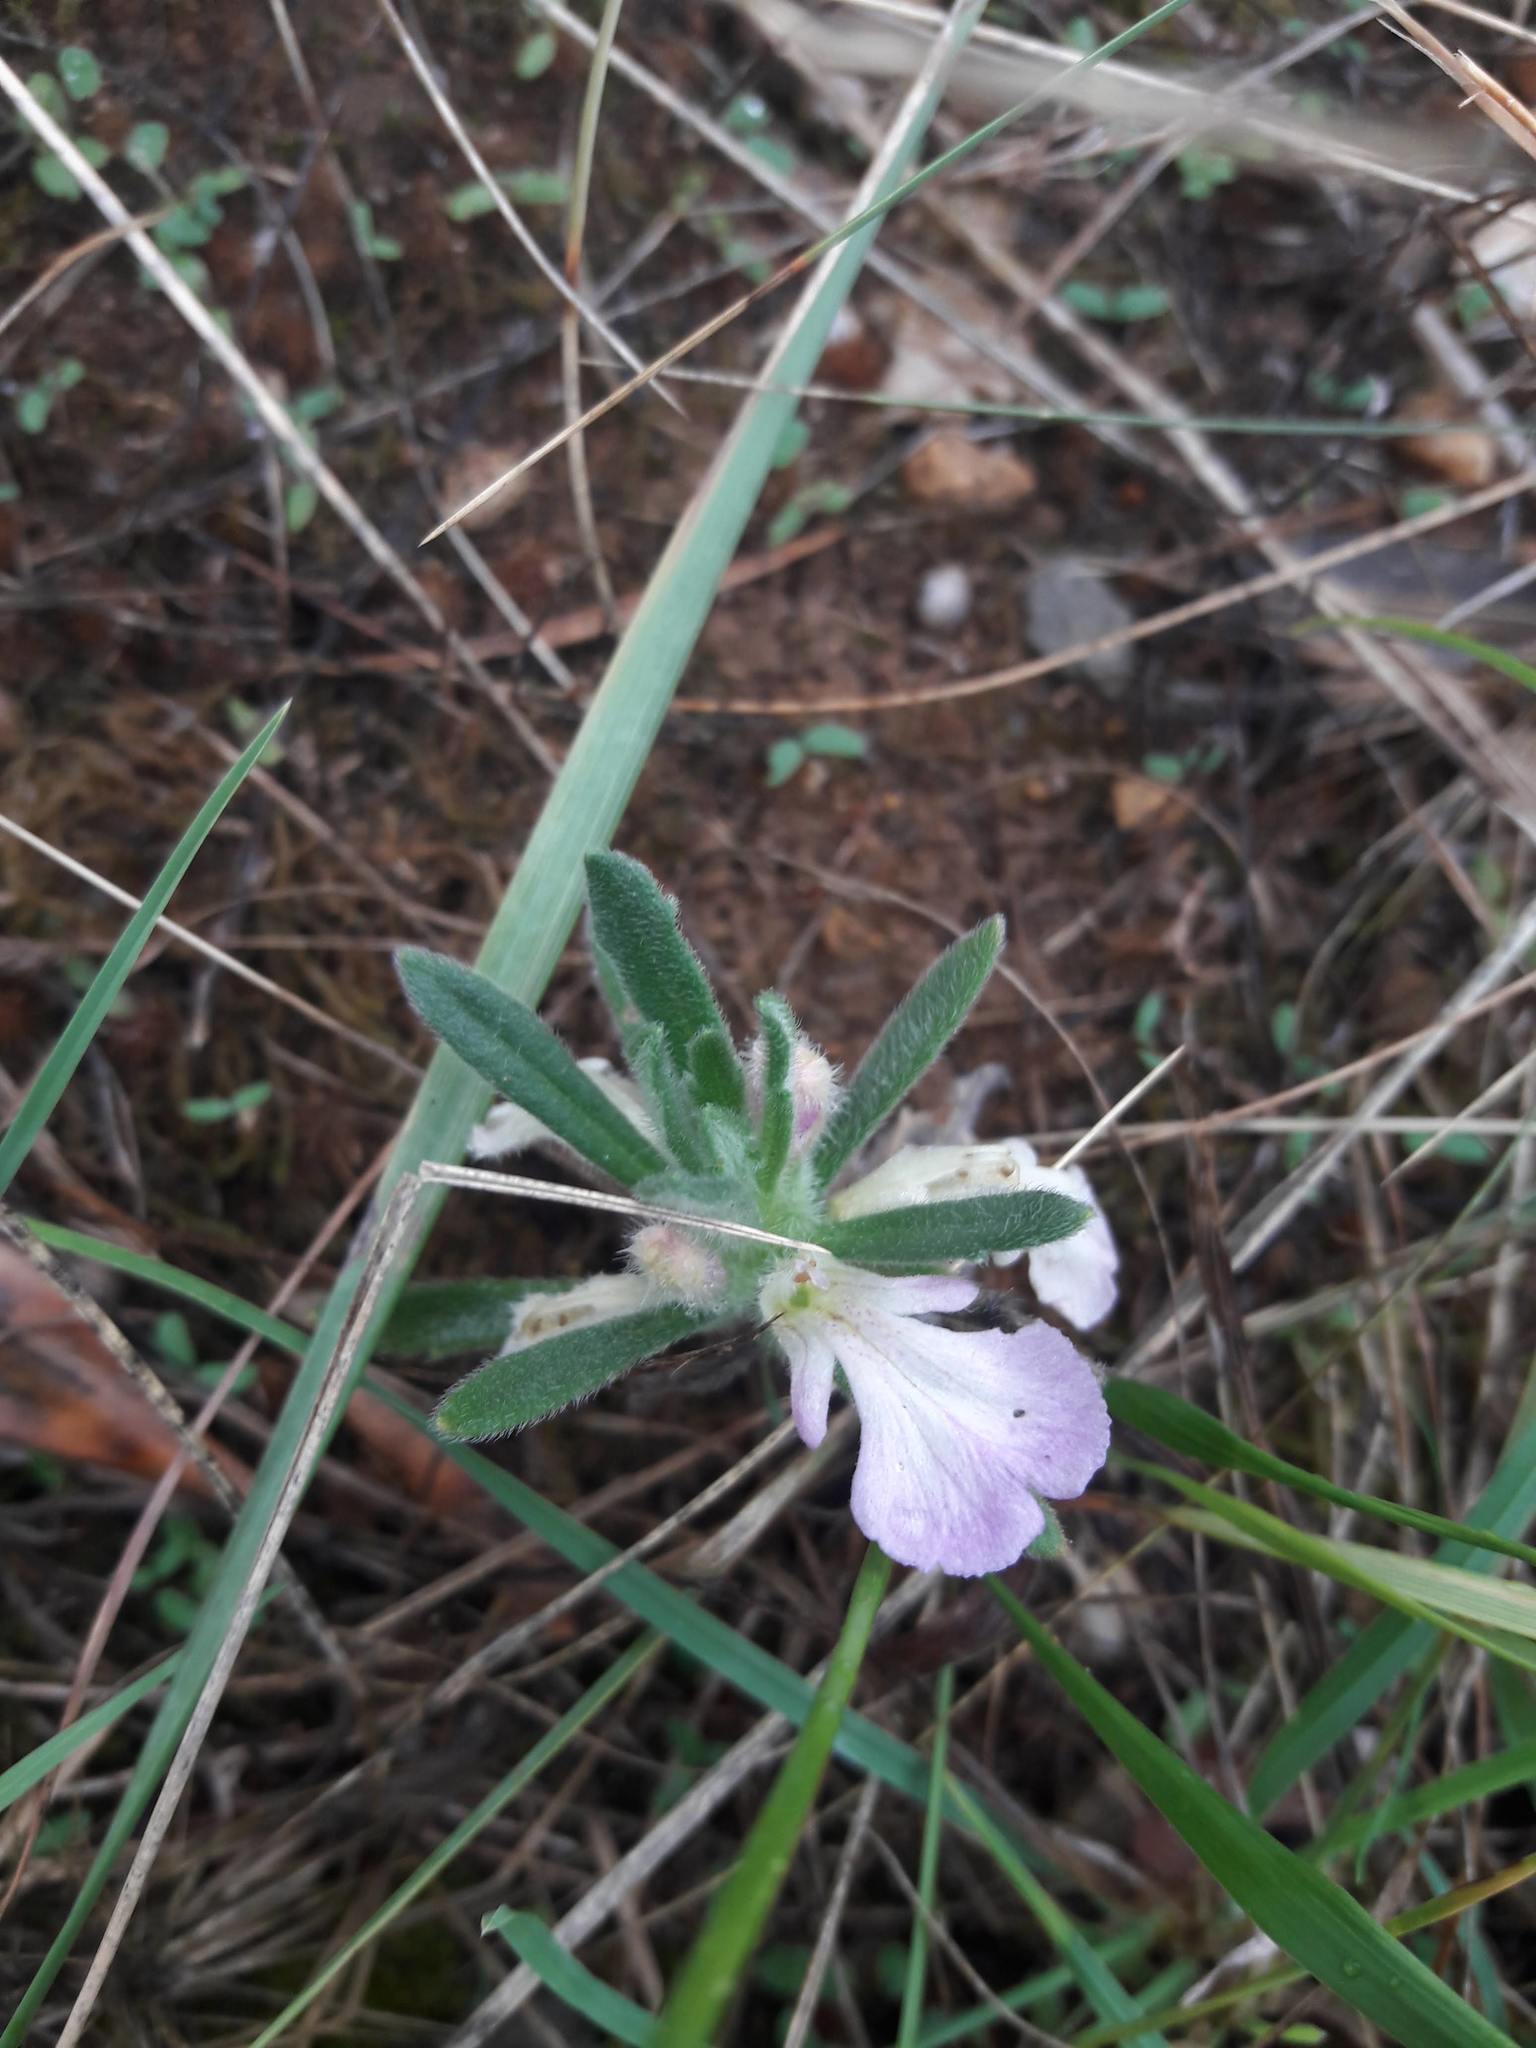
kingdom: Plantae
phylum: Tracheophyta
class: Magnoliopsida
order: Lamiales
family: Lamiaceae
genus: Ajuga
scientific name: Ajuga iva
